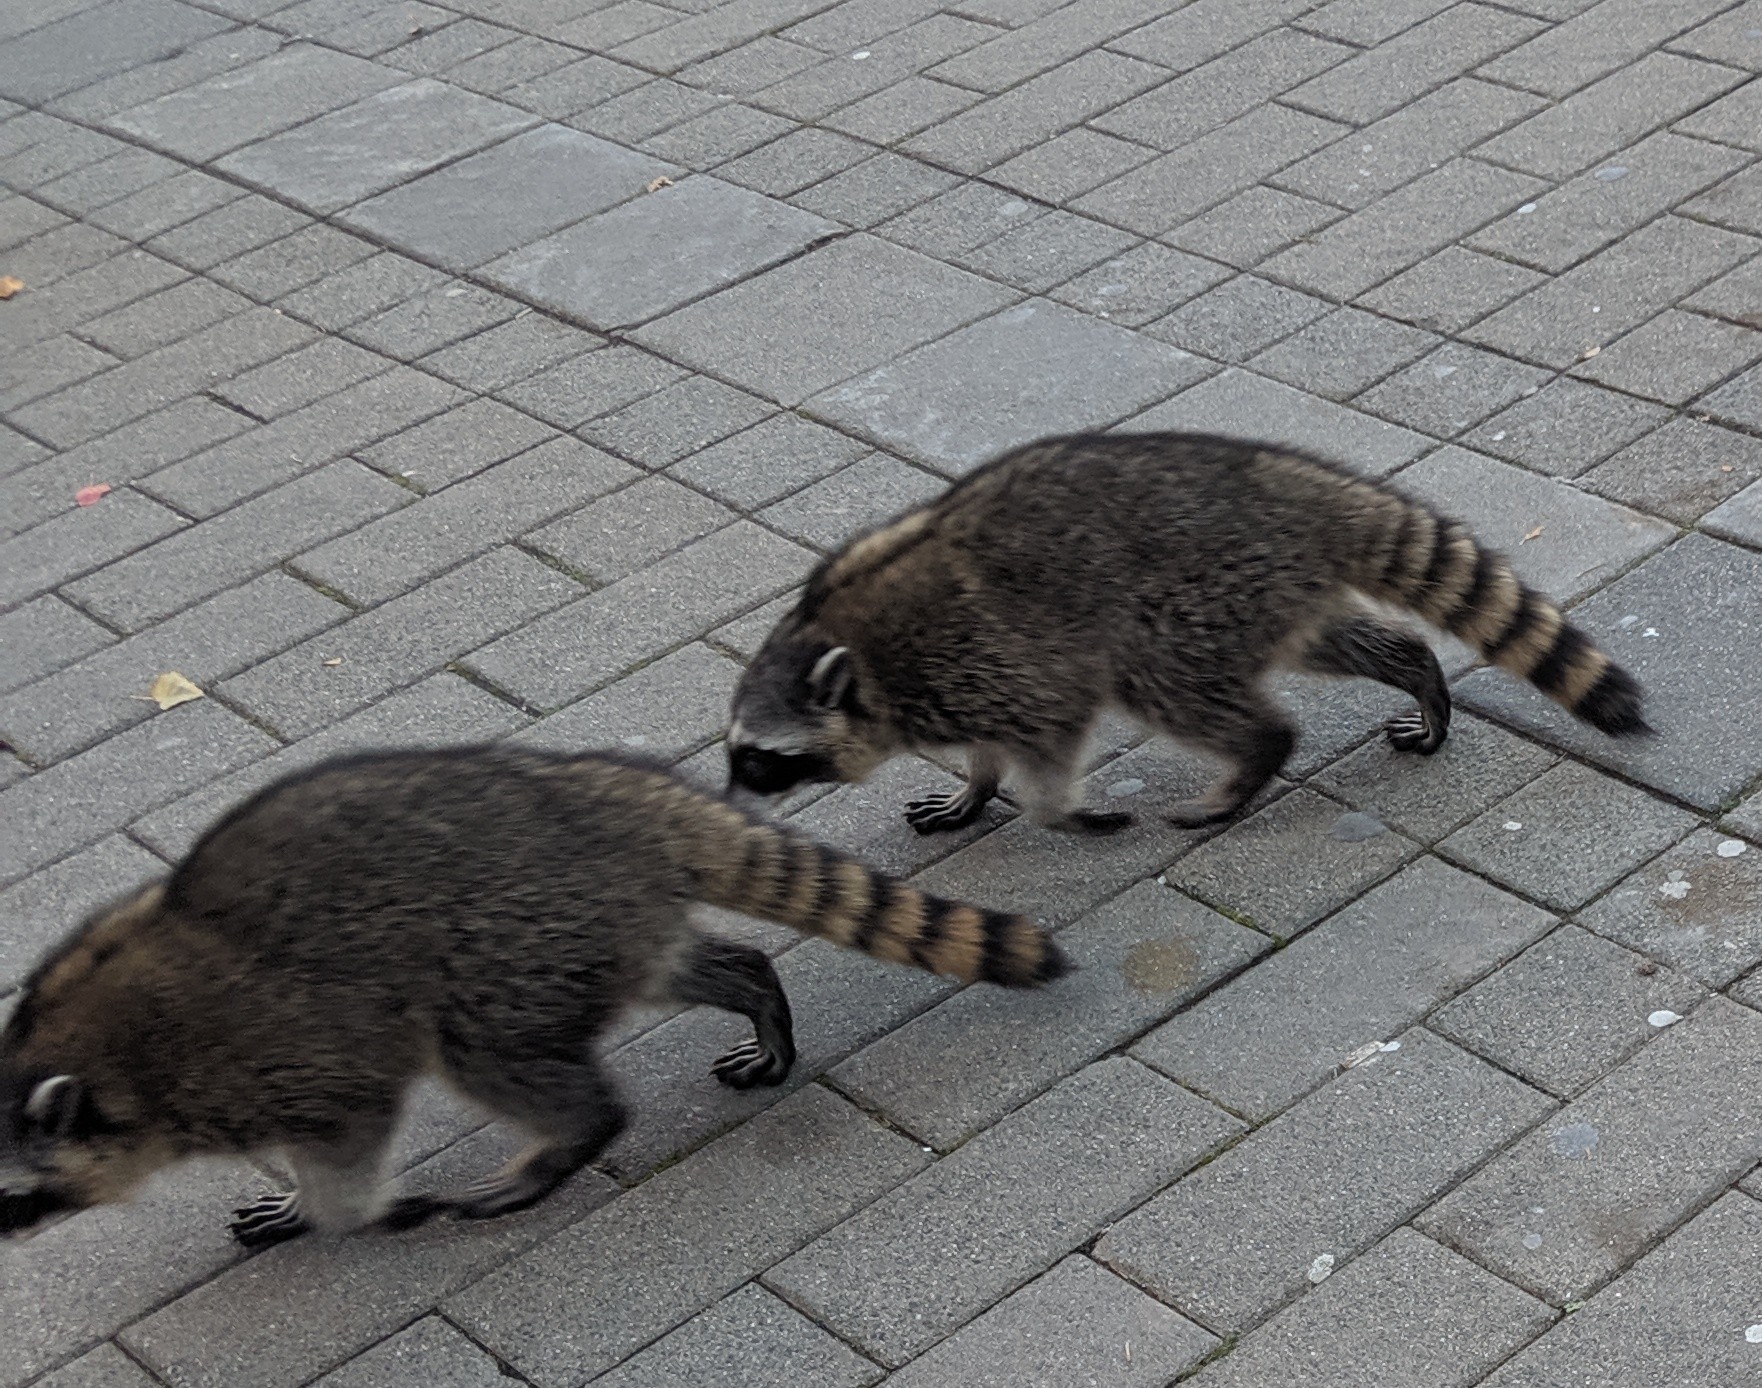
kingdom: Animalia
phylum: Chordata
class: Mammalia
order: Carnivora
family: Procyonidae
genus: Procyon
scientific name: Procyon lotor
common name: Raccoon
